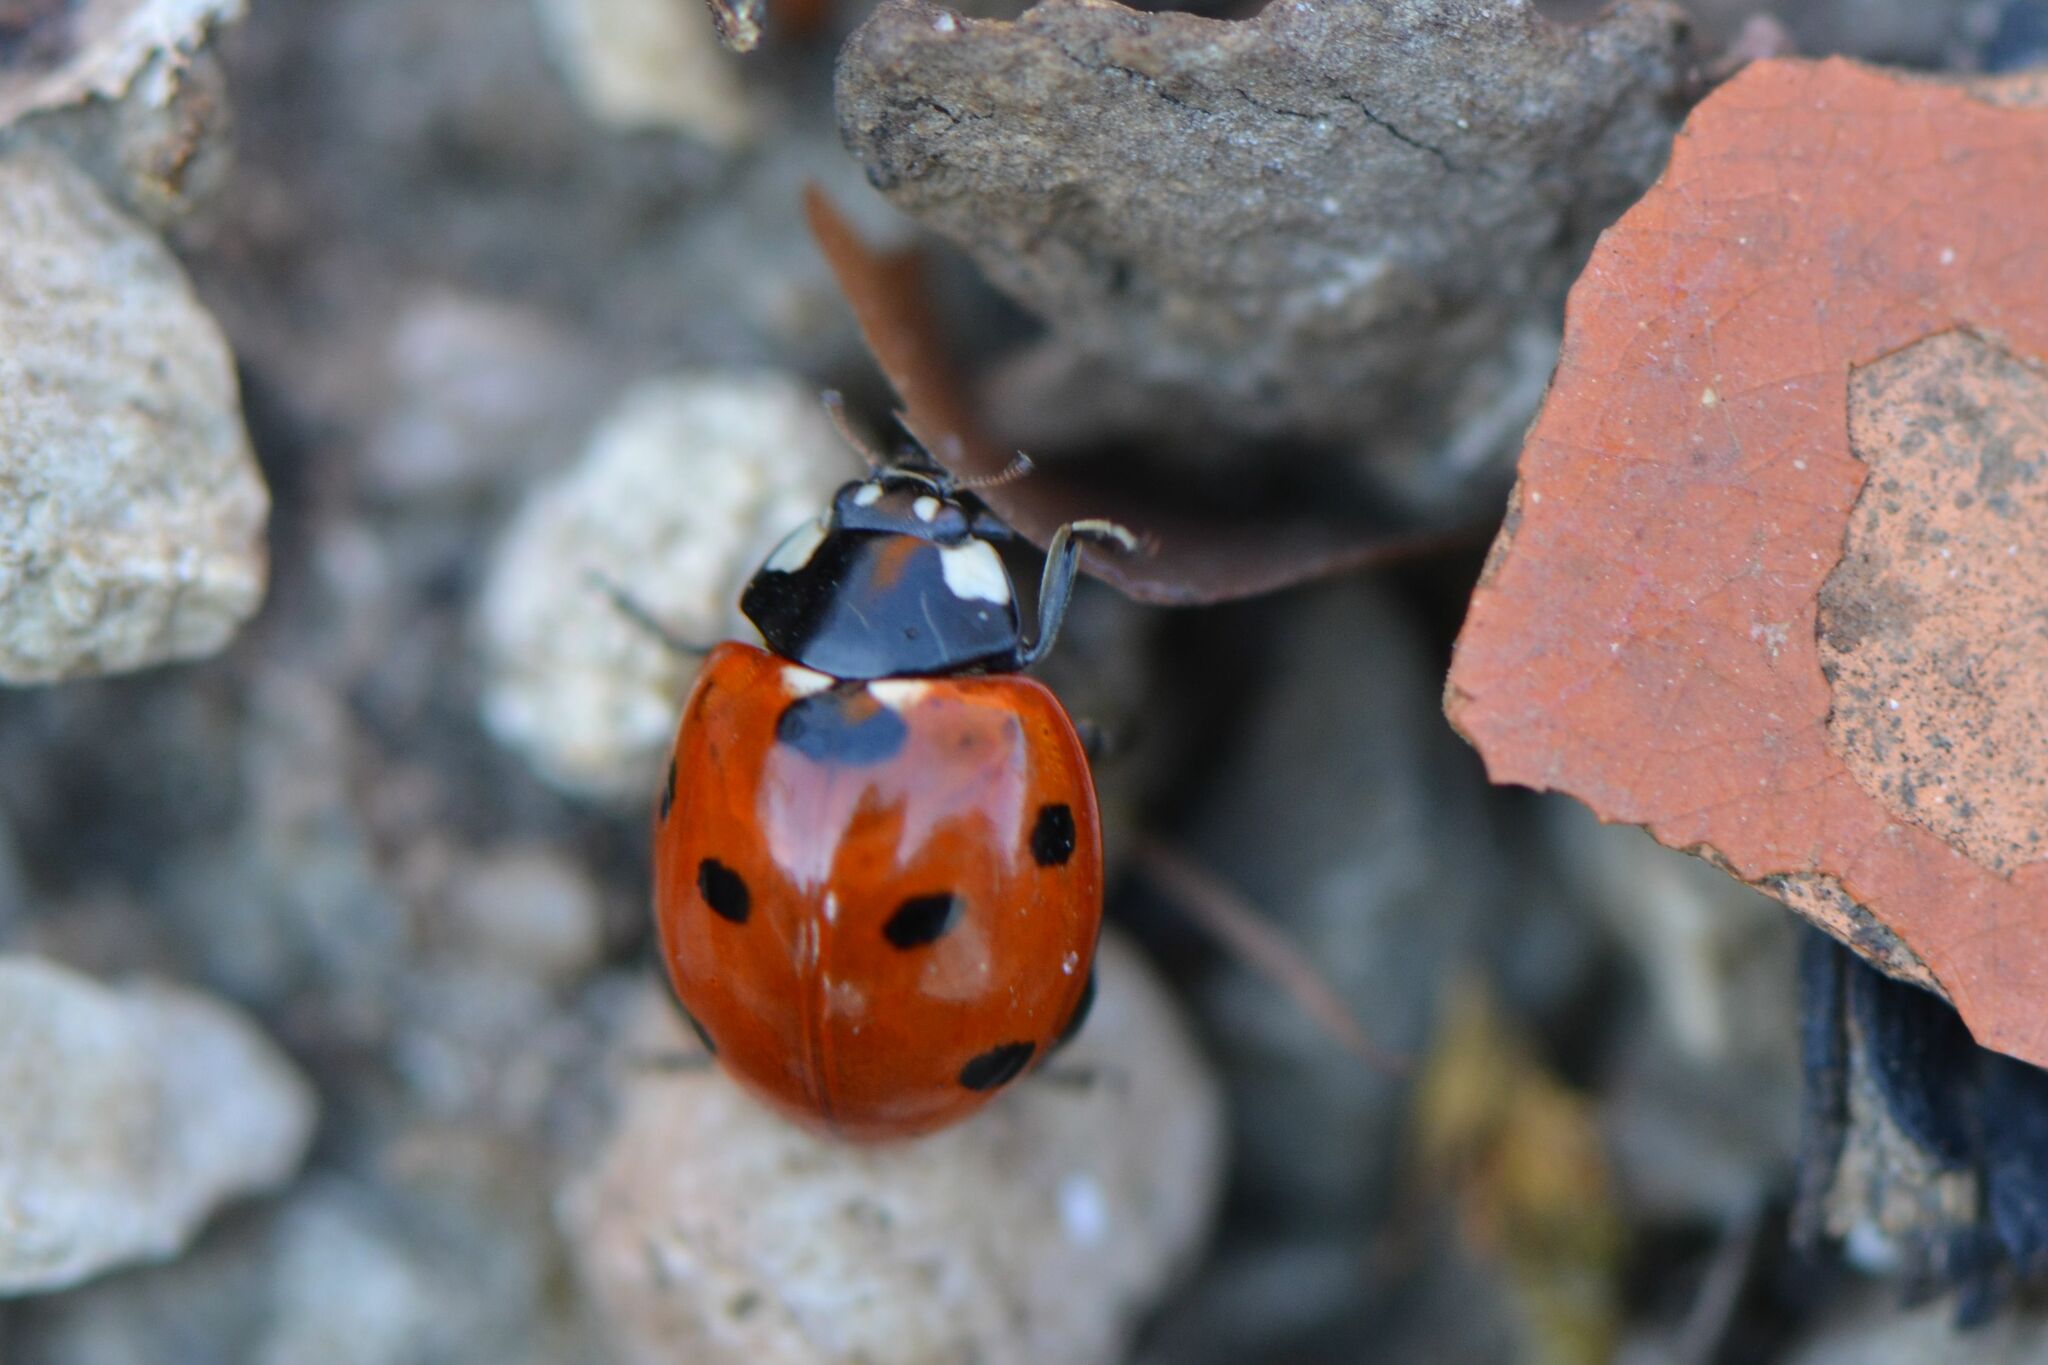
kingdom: Animalia
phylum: Arthropoda
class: Insecta
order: Coleoptera
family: Coccinellidae
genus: Coccinella
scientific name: Coccinella septempunctata
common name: Sevenspotted lady beetle
